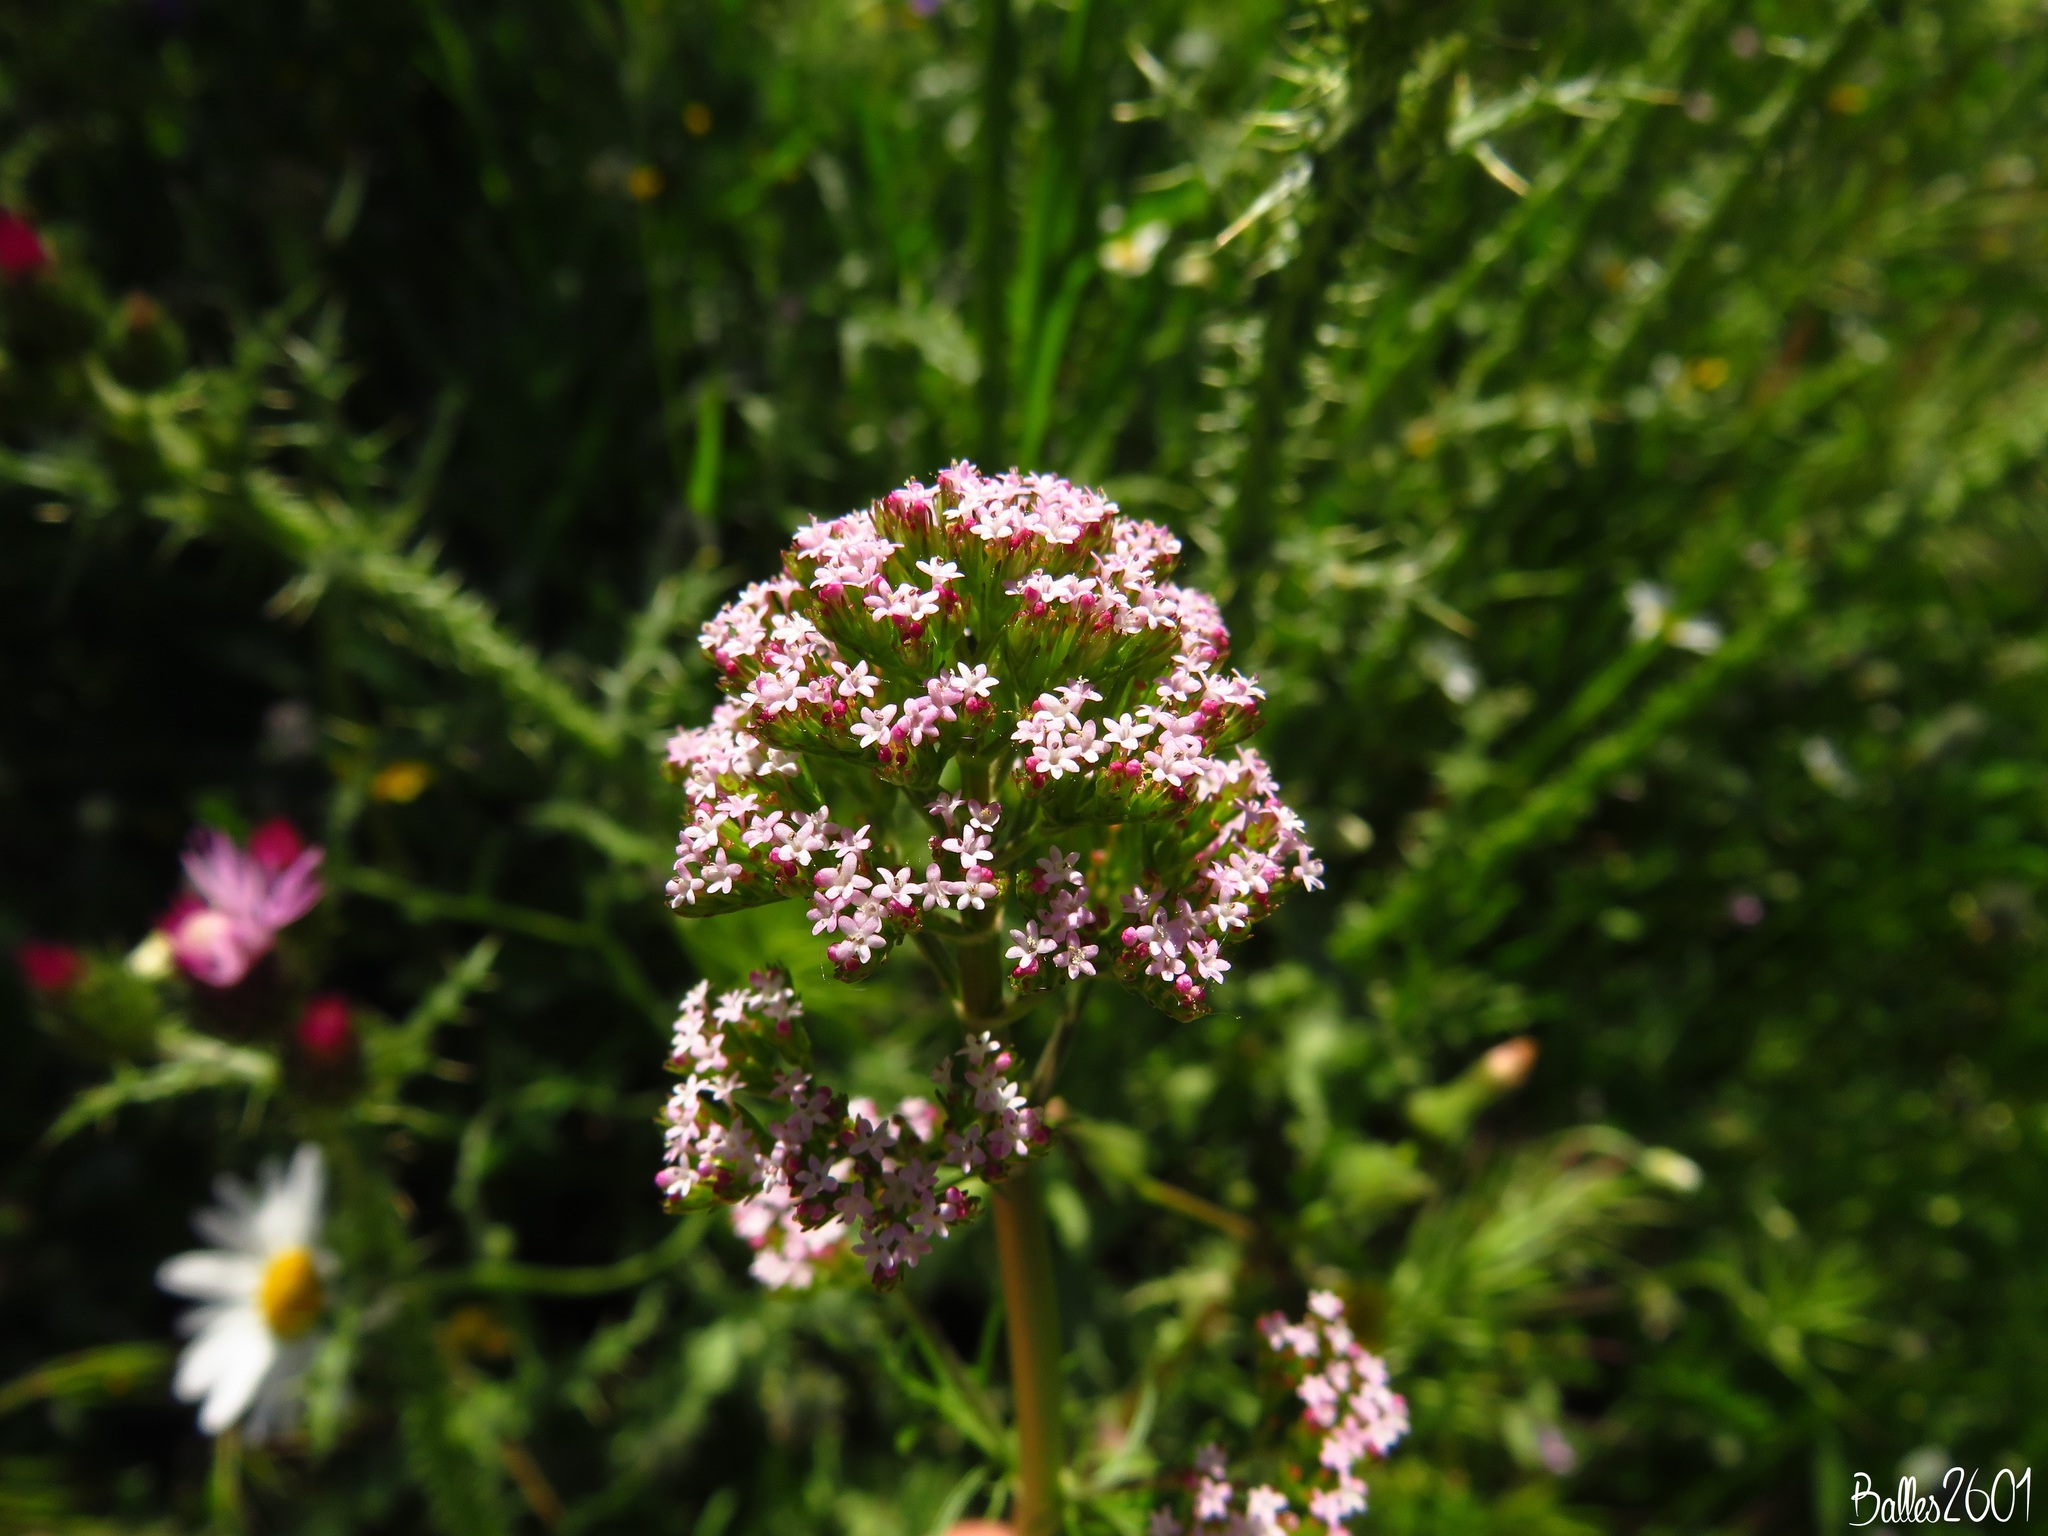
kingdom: Plantae
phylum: Tracheophyta
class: Magnoliopsida
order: Dipsacales
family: Caprifoliaceae
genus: Centranthus
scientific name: Centranthus calcitrapae
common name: Annual valerian
